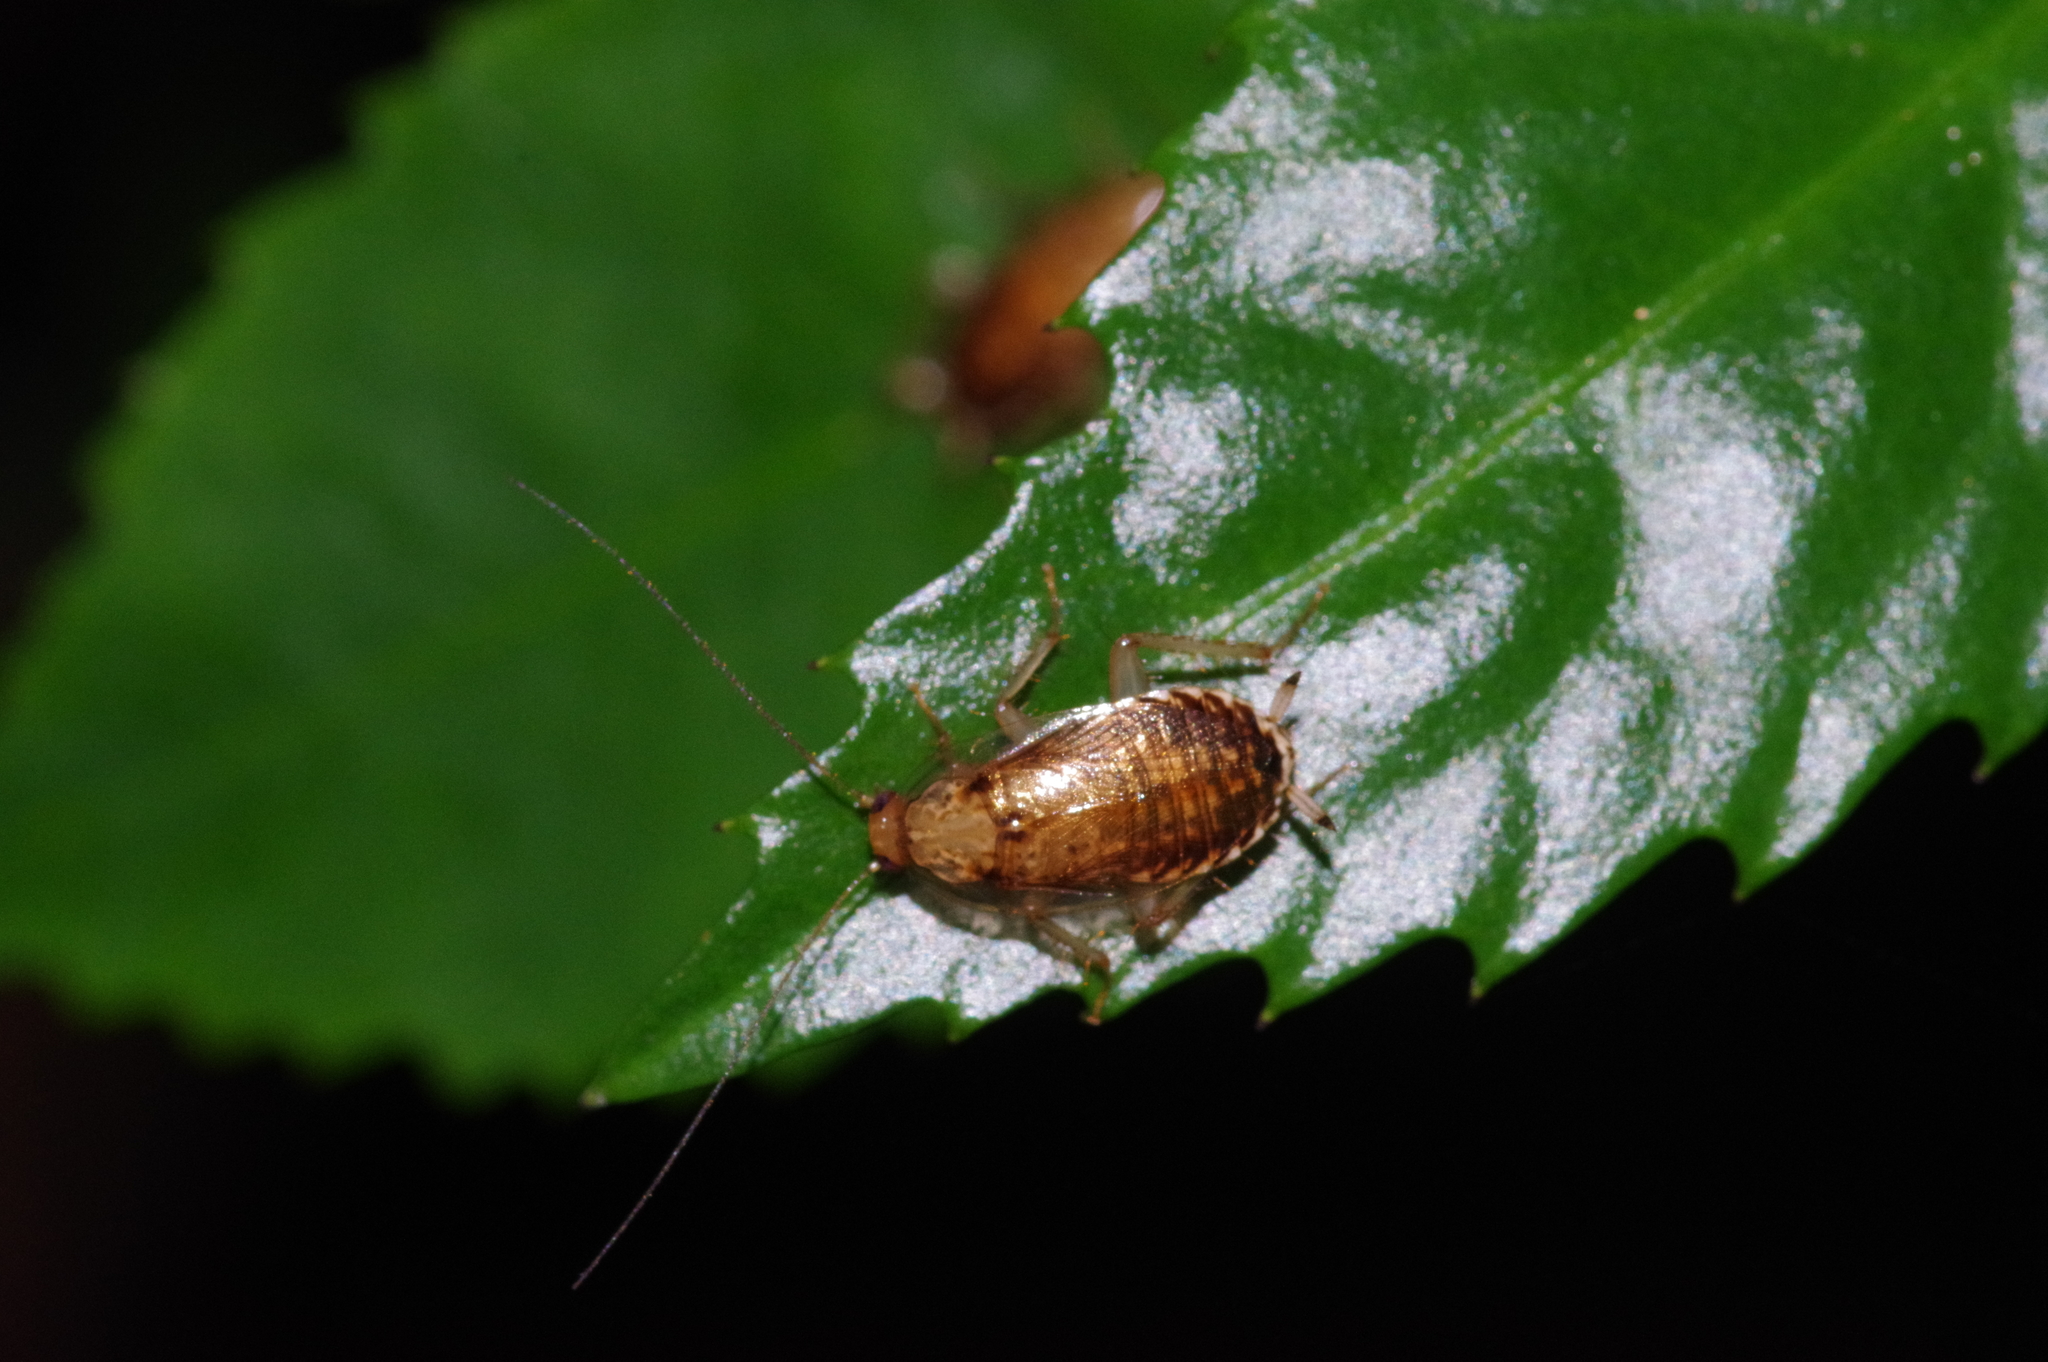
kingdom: Animalia
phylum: Arthropoda
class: Insecta
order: Blattodea
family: Ectobiidae
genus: Margattea
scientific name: Margattea satsumana
